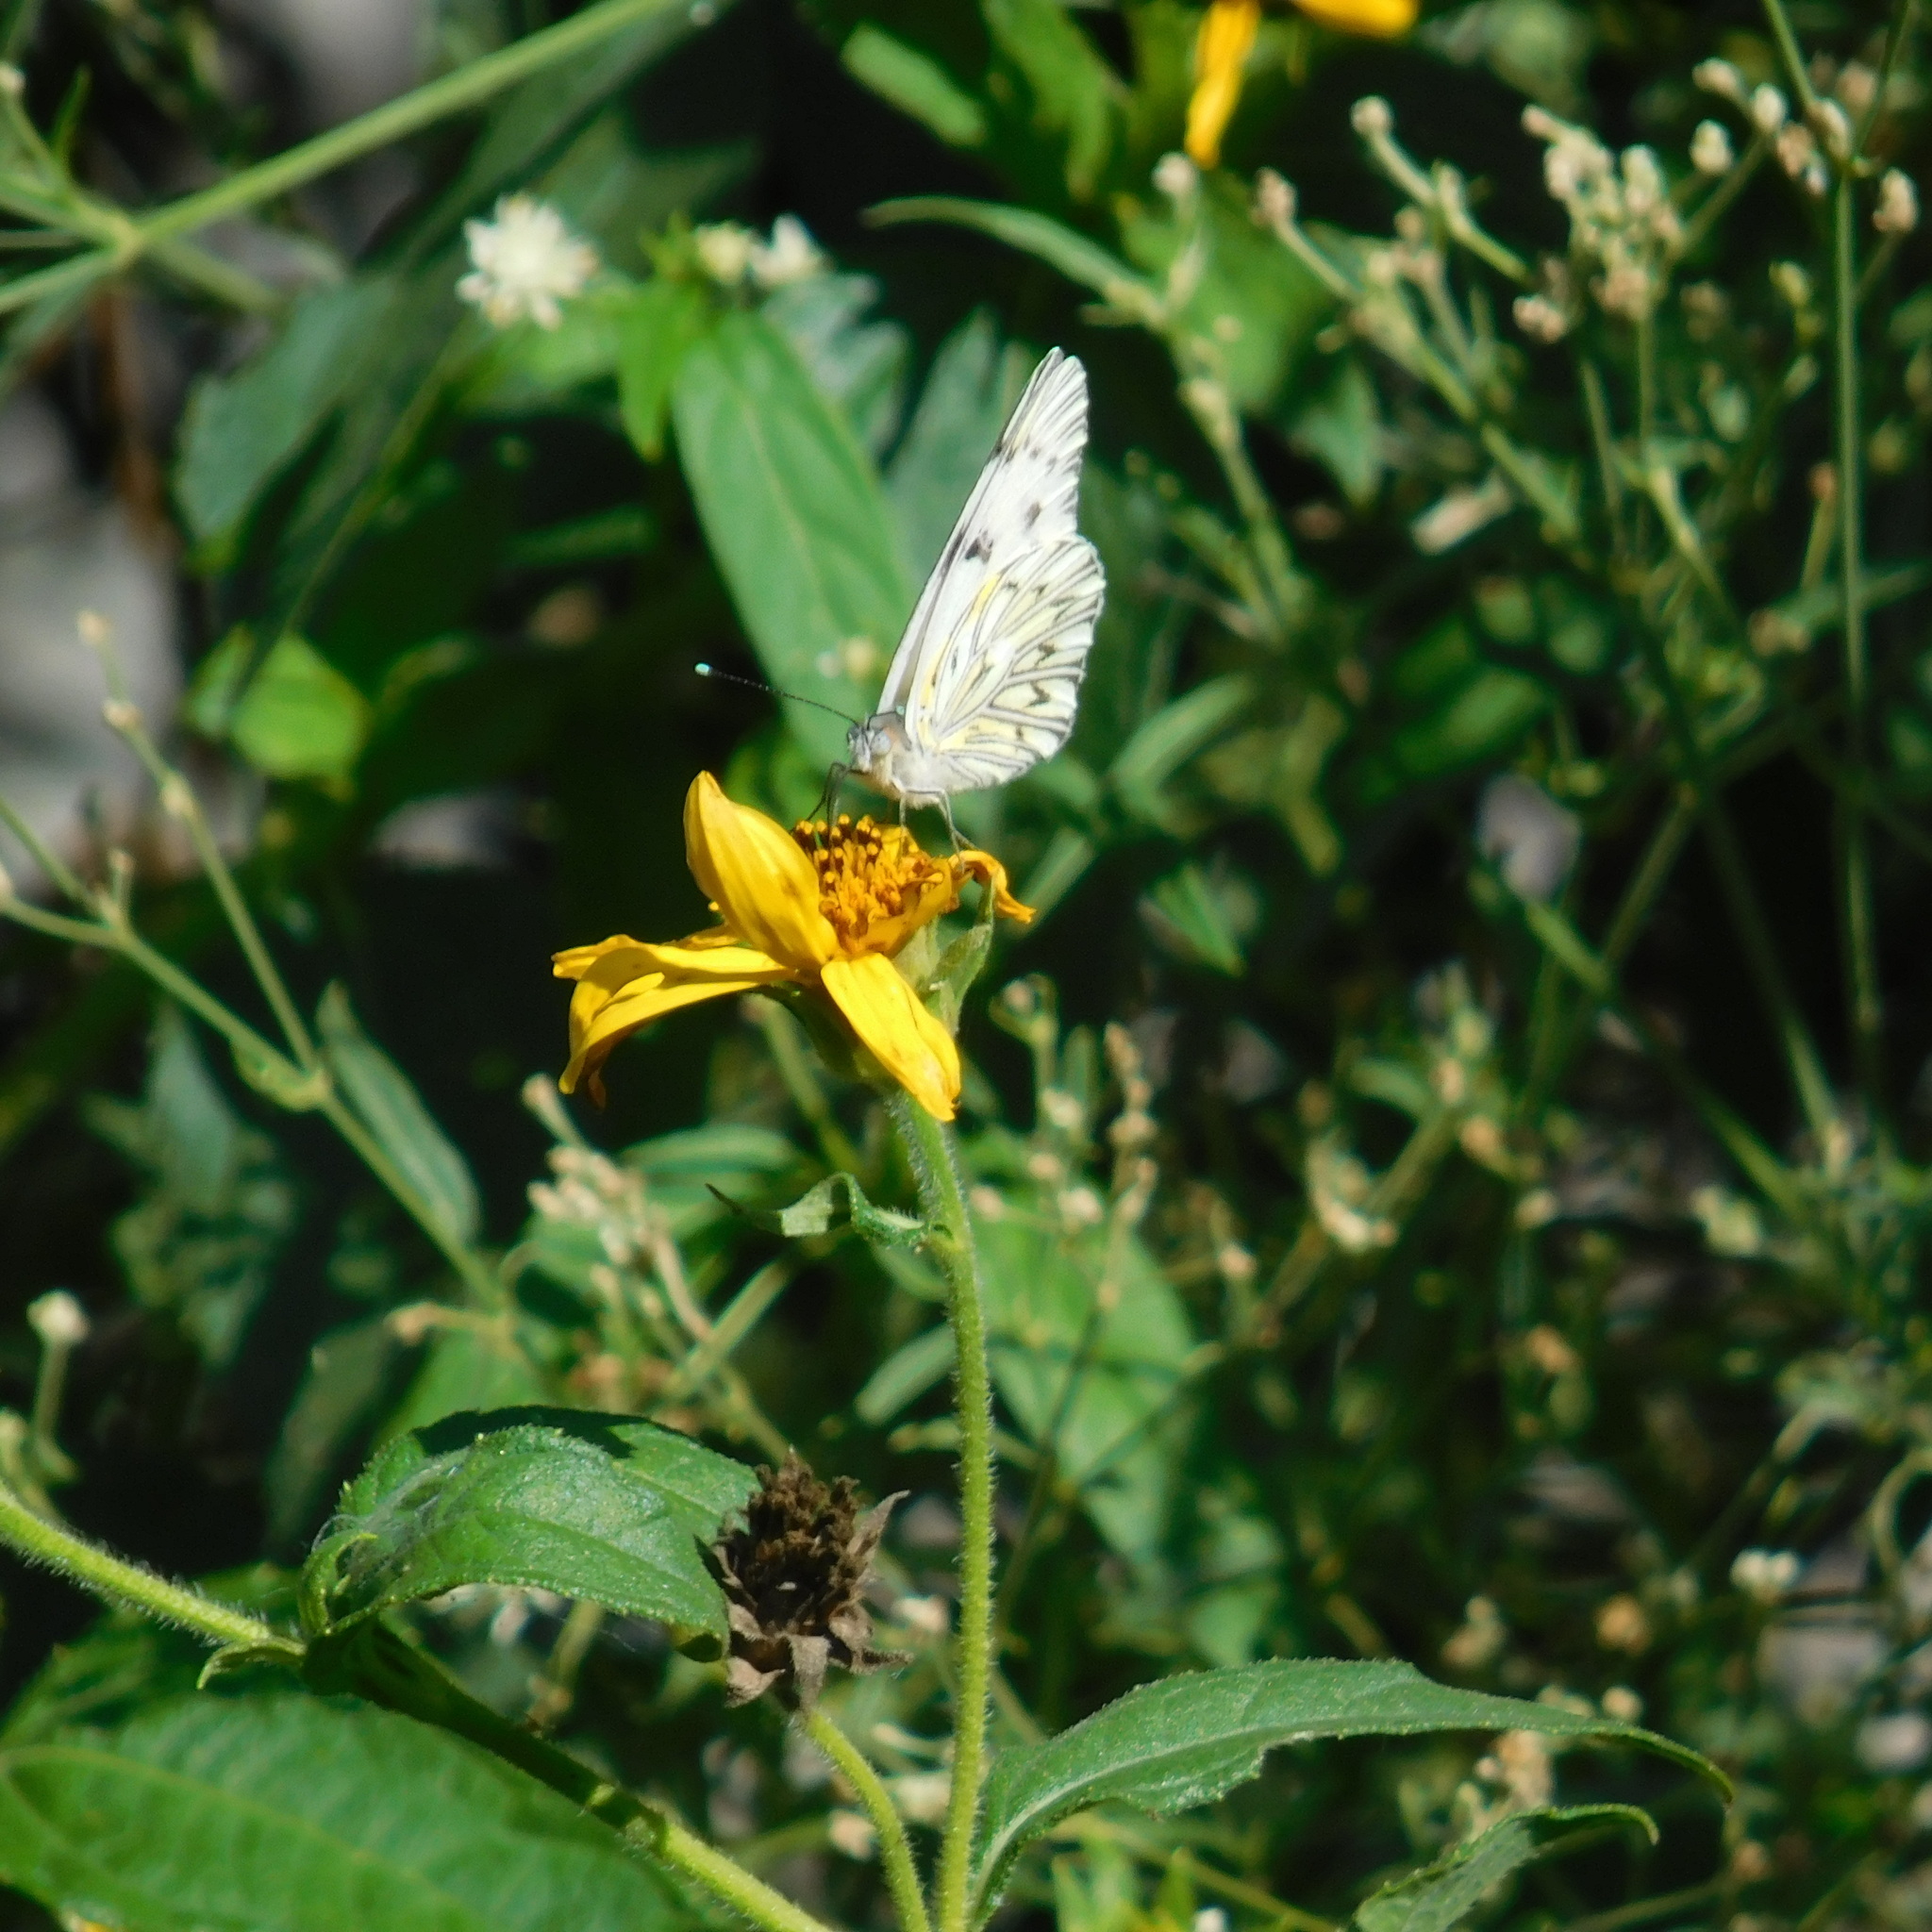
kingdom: Animalia
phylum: Arthropoda
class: Insecta
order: Lepidoptera
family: Pieridae
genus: Tatochila
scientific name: Tatochila autodice
